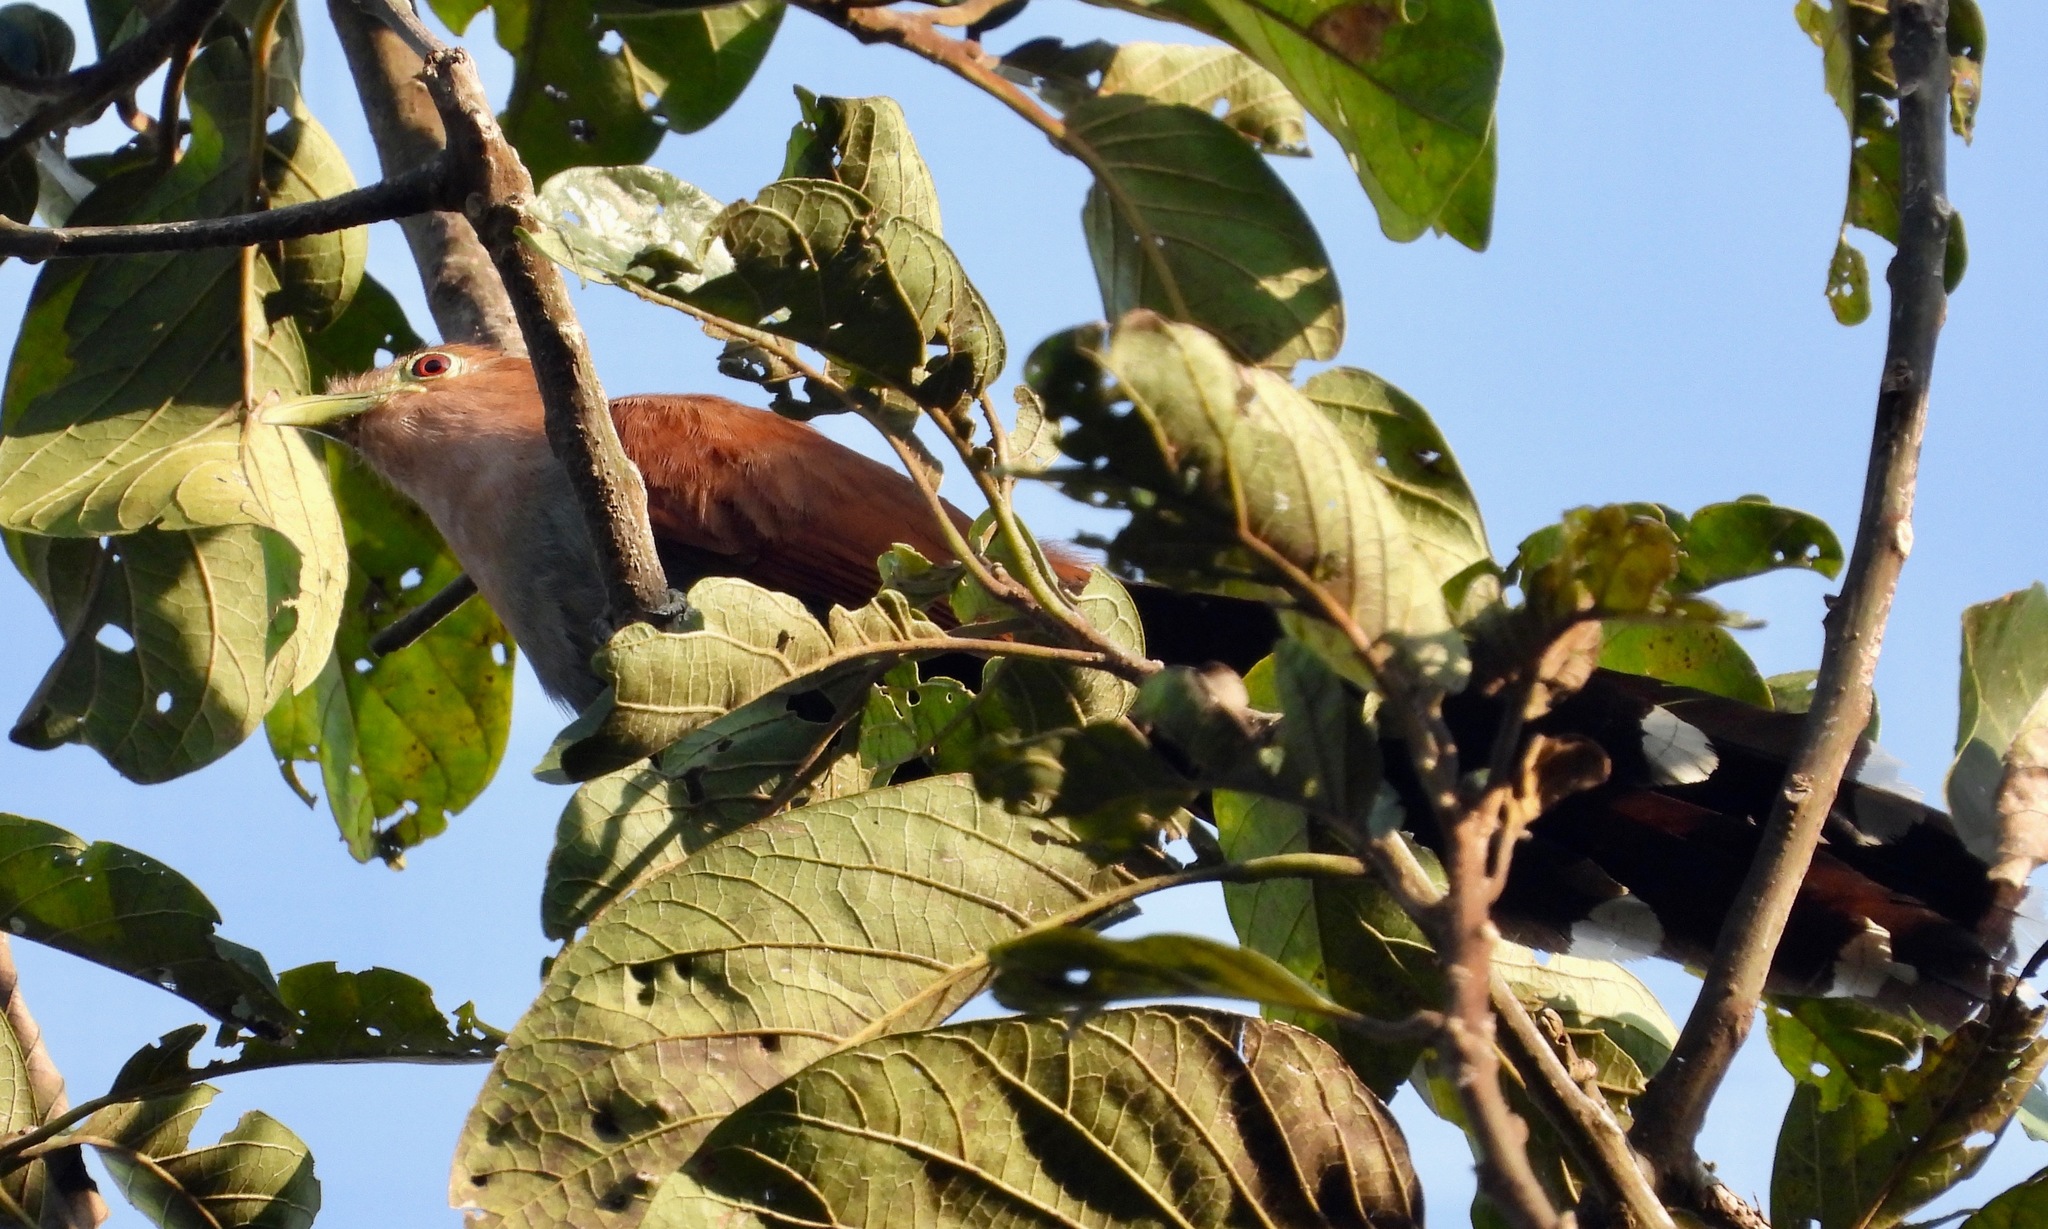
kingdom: Animalia
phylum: Chordata
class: Aves
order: Cuculiformes
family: Cuculidae
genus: Piaya
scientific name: Piaya cayana
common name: Squirrel cuckoo
